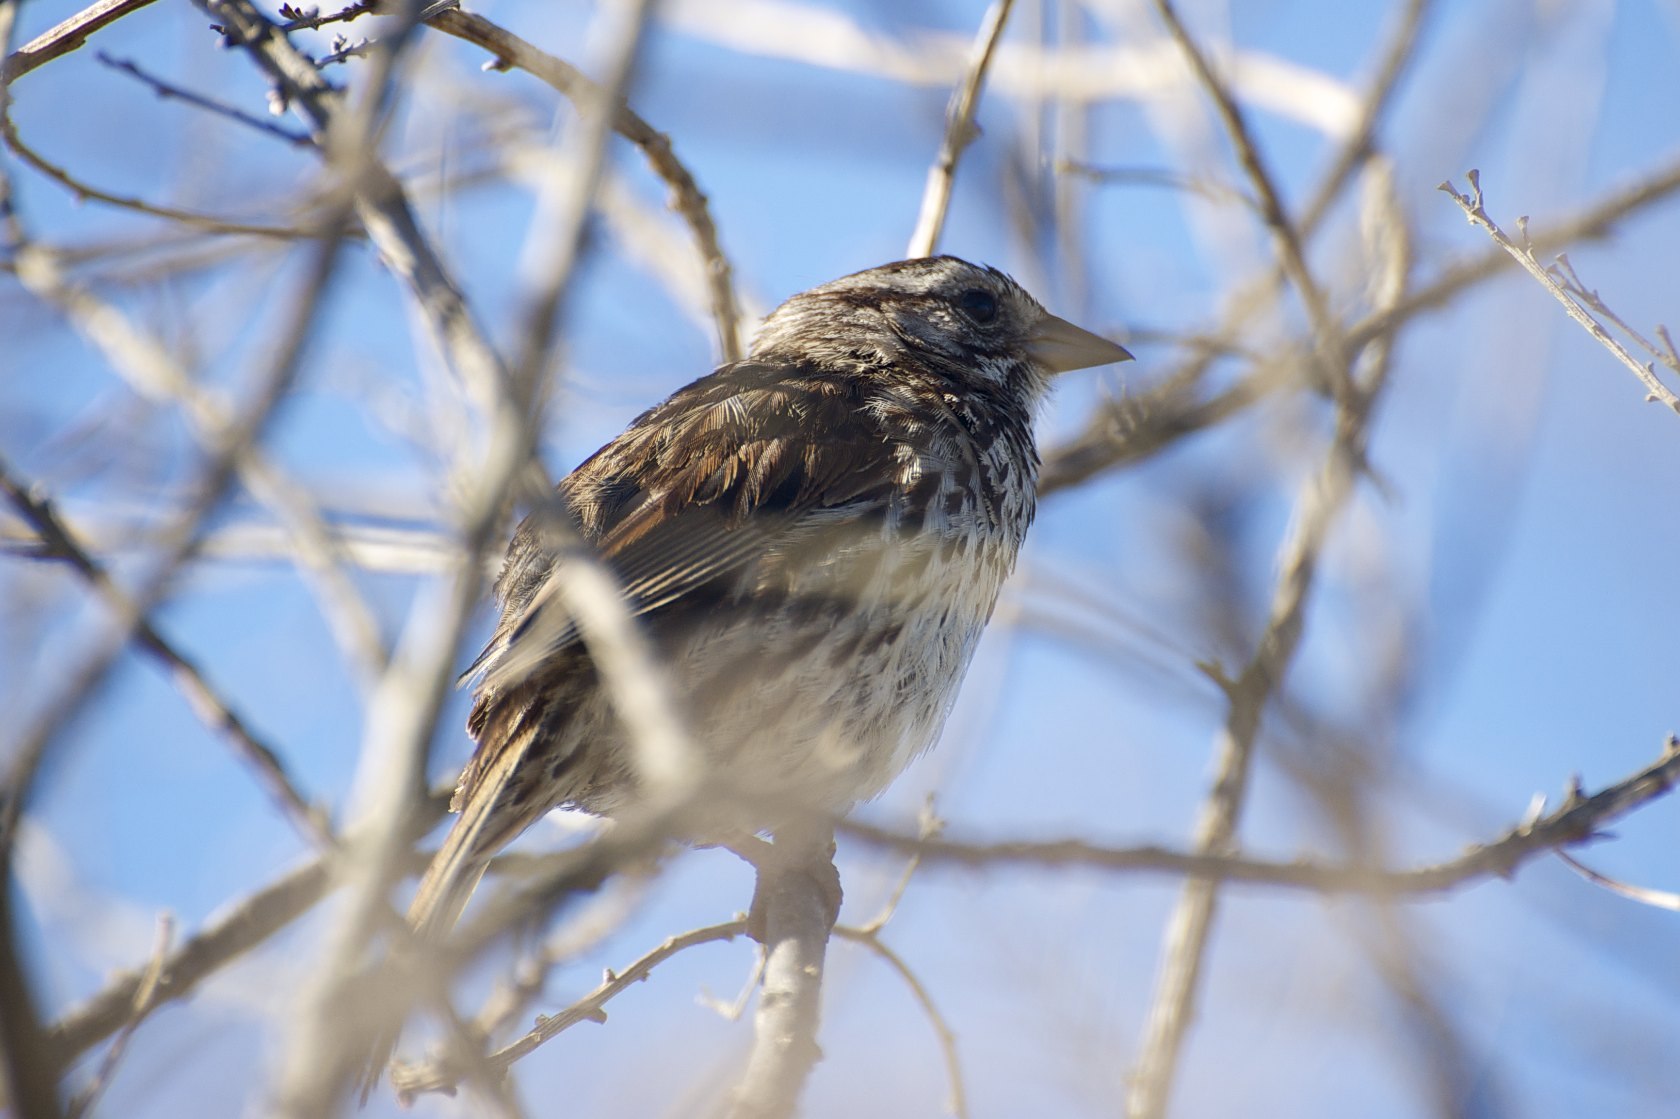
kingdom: Animalia
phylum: Chordata
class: Aves
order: Passeriformes
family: Passerellidae
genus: Melospiza
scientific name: Melospiza melodia
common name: Song sparrow
